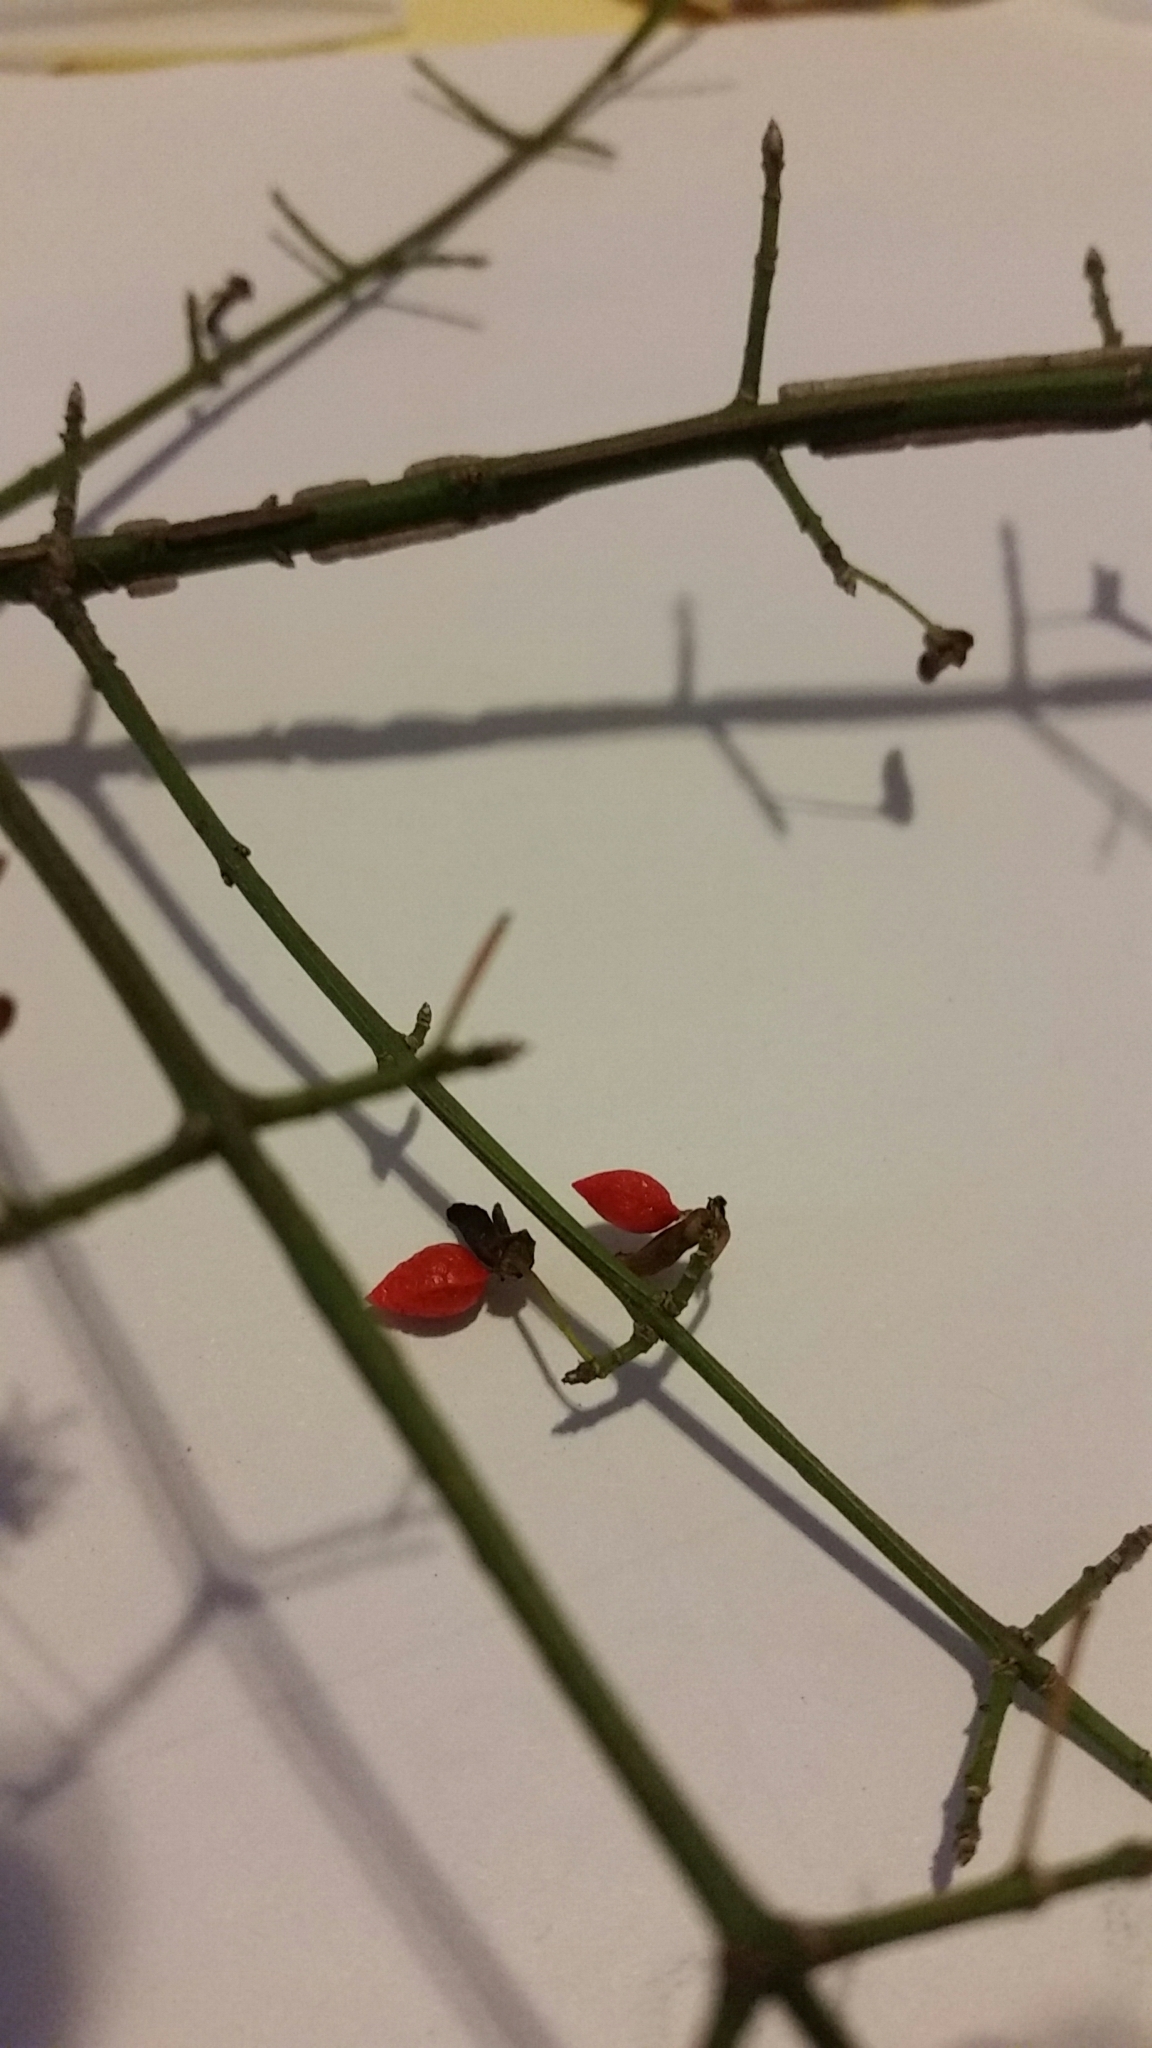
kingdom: Plantae
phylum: Tracheophyta
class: Magnoliopsida
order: Celastrales
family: Celastraceae
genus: Euonymus
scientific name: Euonymus alatus
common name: Winged euonymus
